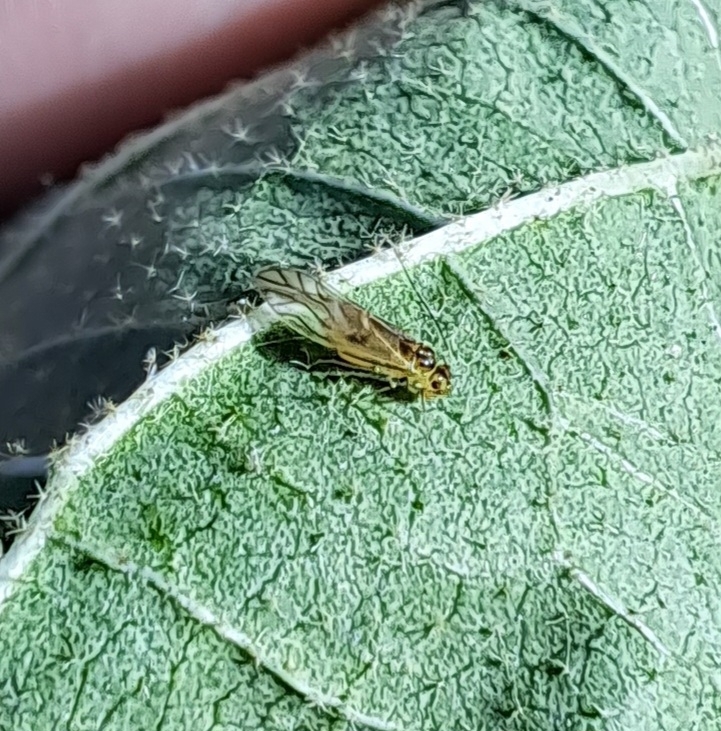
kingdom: Animalia
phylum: Arthropoda
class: Insecta
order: Psocodea
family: Caeciliusidae
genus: Valenzuela
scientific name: Valenzuela flavidus
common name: Yellow barklouse
